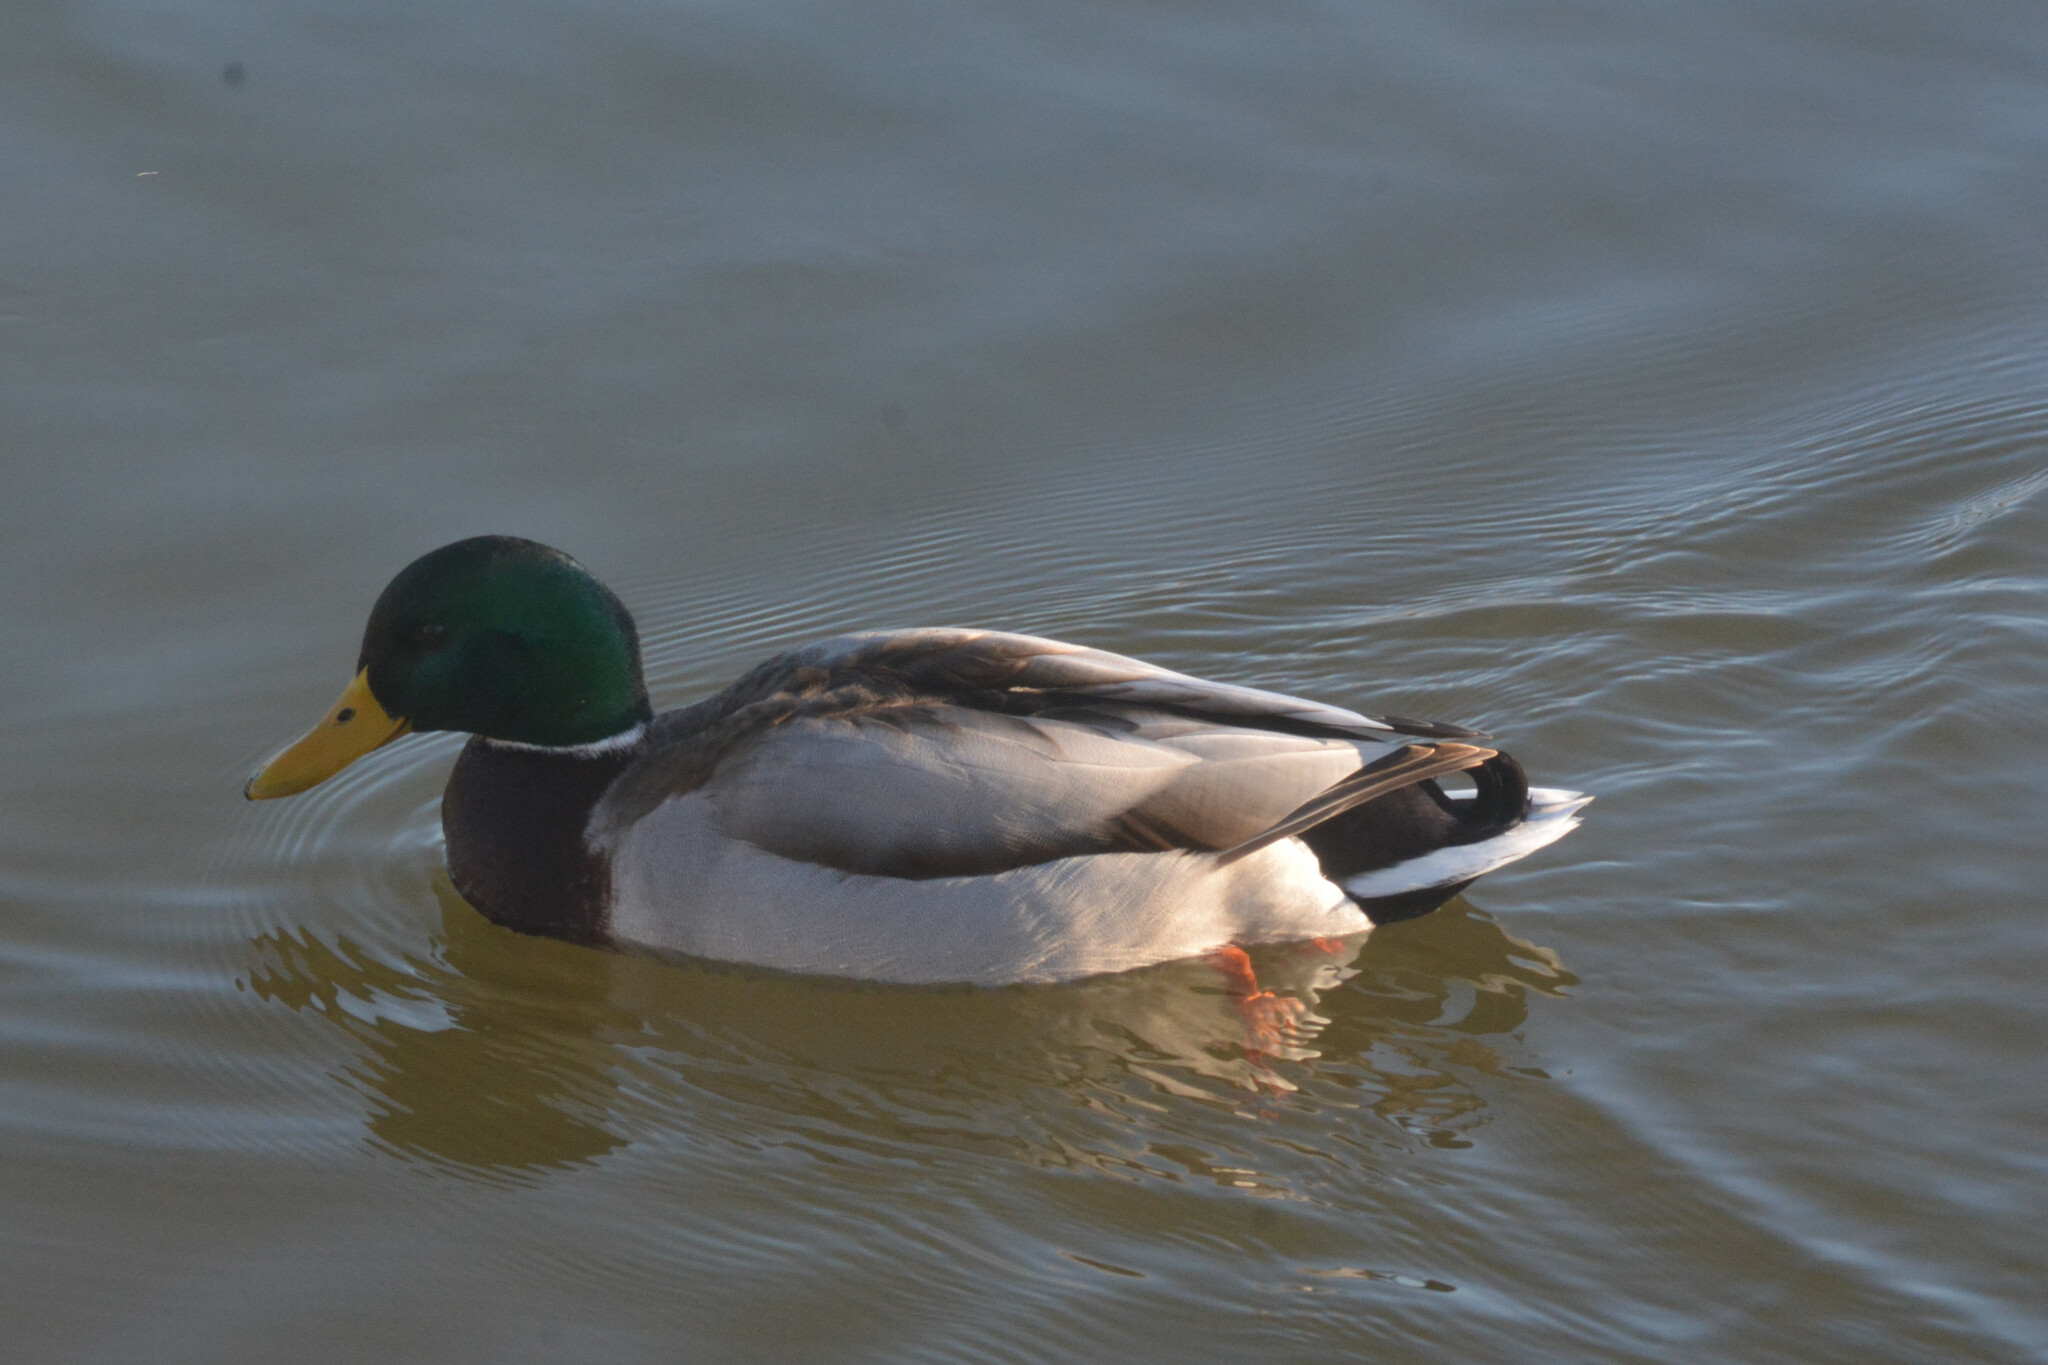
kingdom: Animalia
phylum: Chordata
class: Aves
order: Anseriformes
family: Anatidae
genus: Anas
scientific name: Anas platyrhynchos
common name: Mallard
